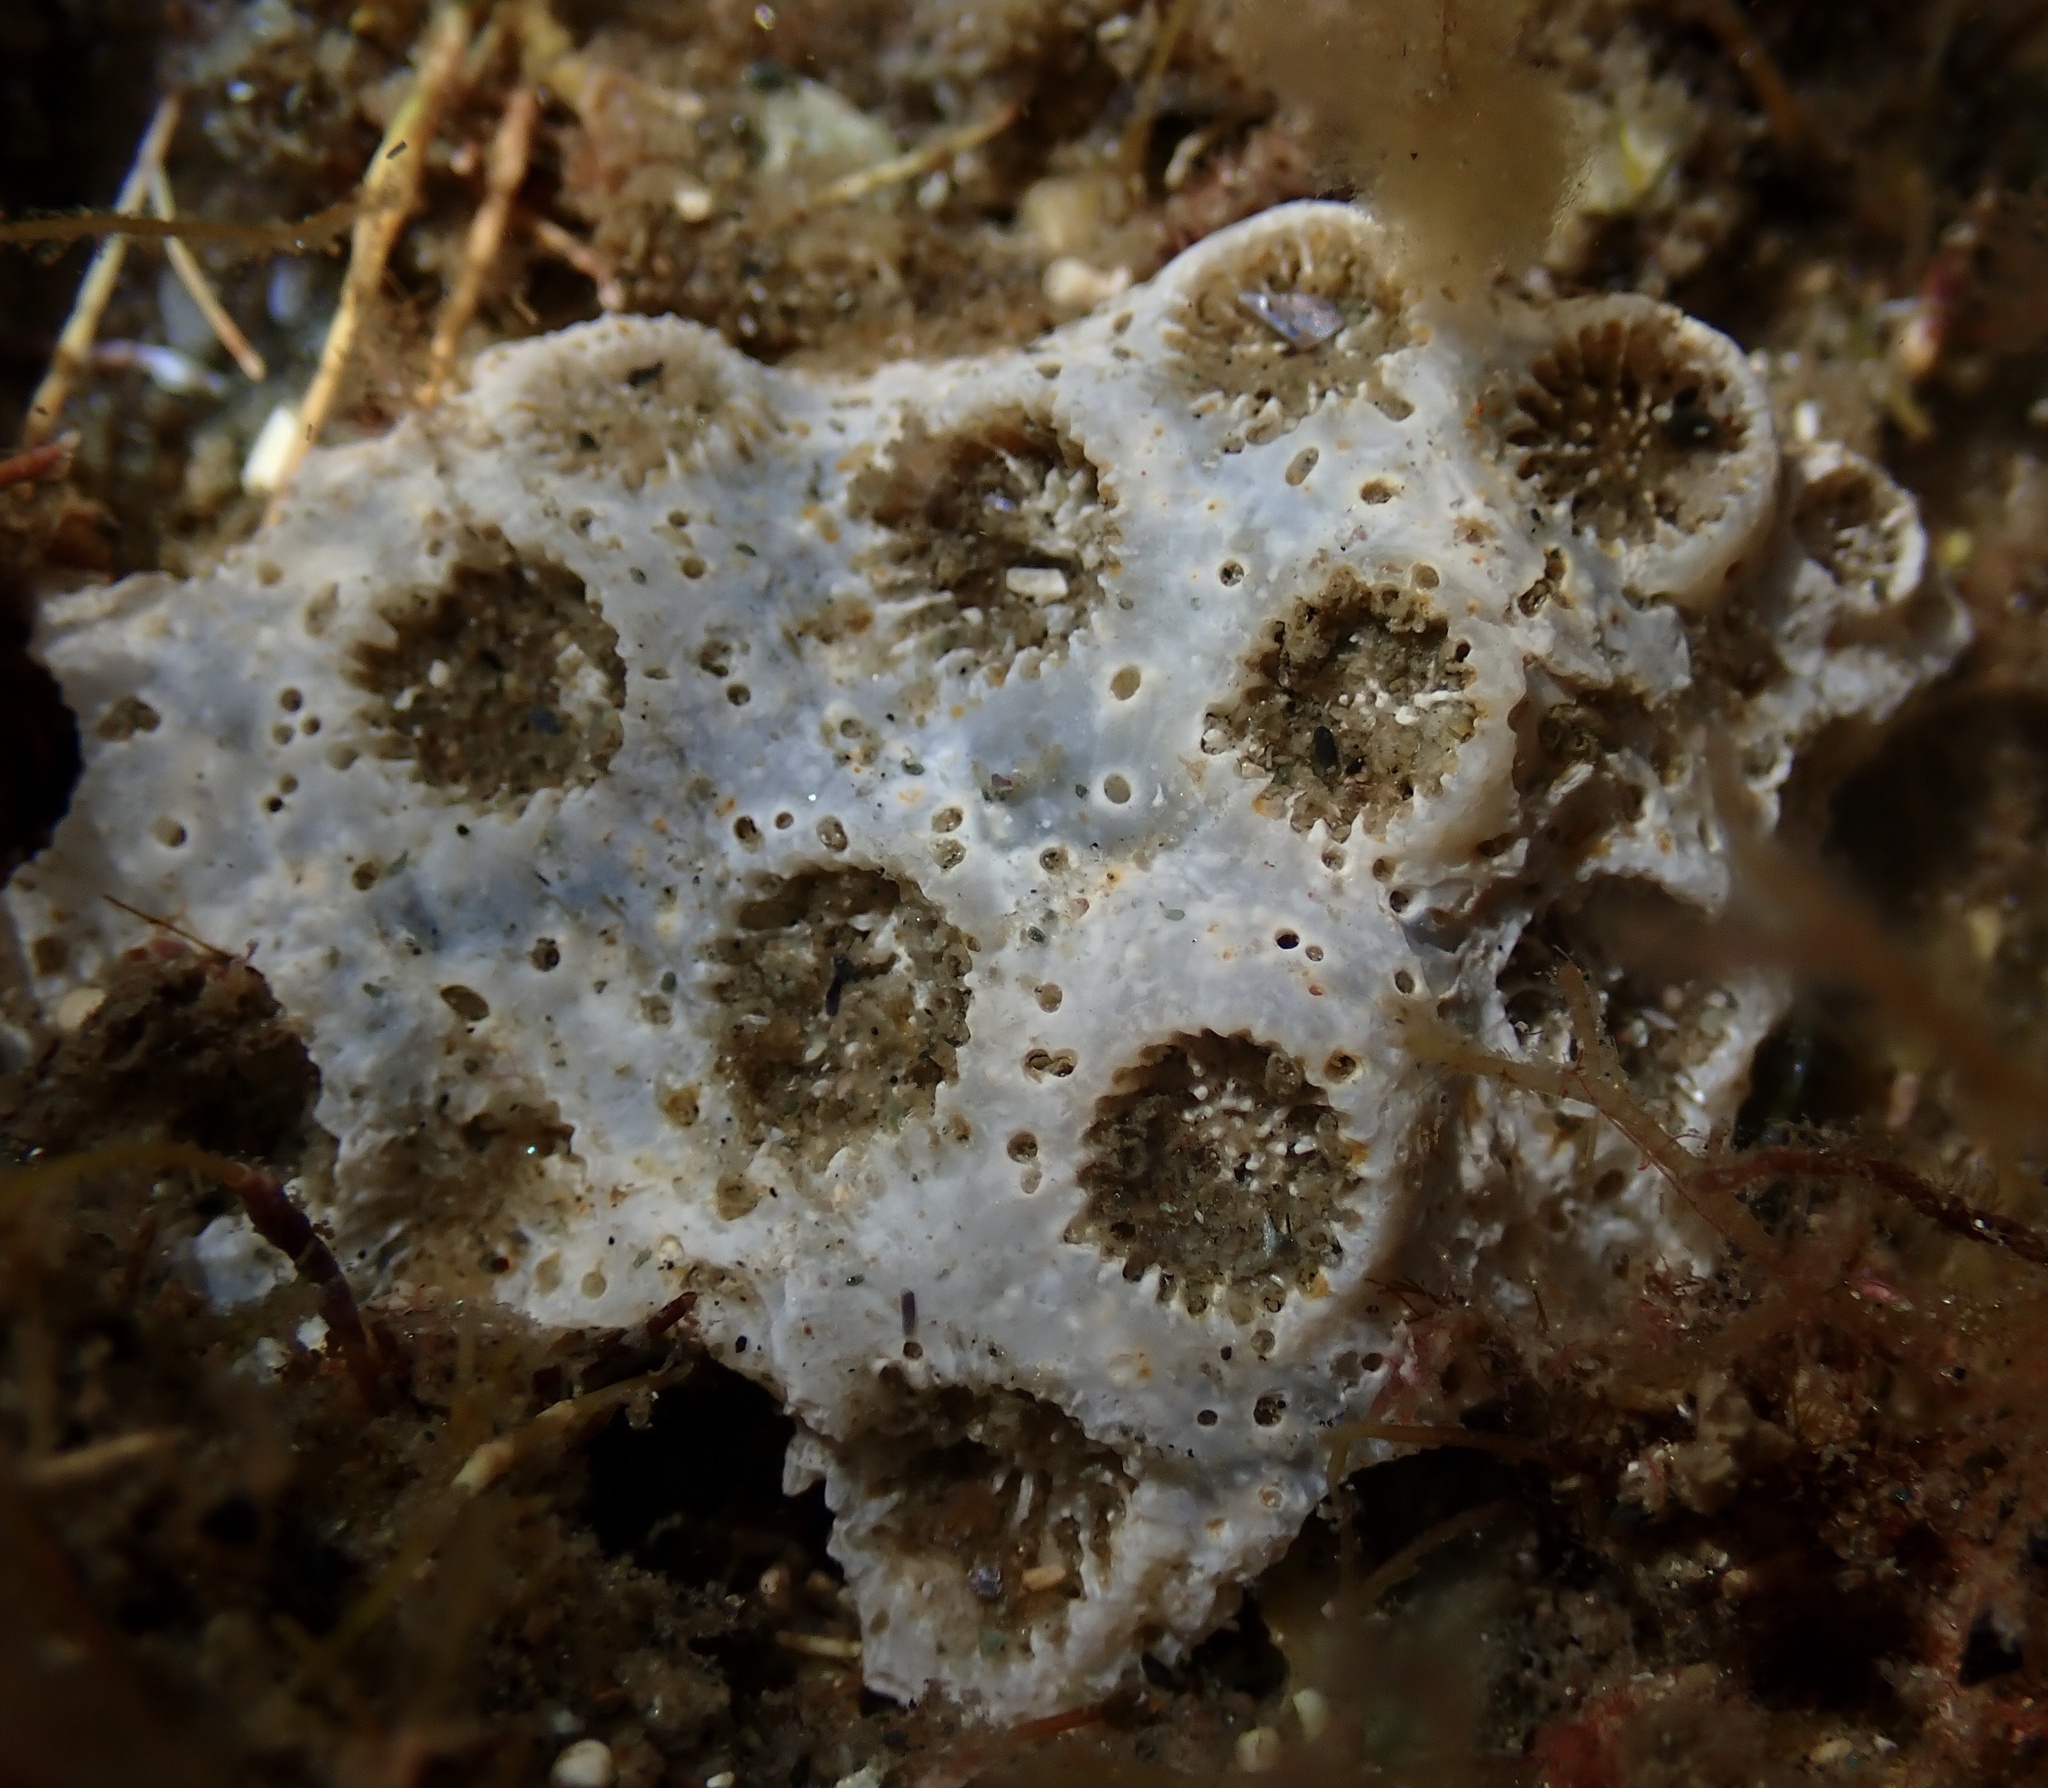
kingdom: Animalia
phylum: Cnidaria
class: Anthozoa
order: Scleractinia
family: Astrangiidae
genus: Astrangia
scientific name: Astrangia poculata
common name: Northern star coral
